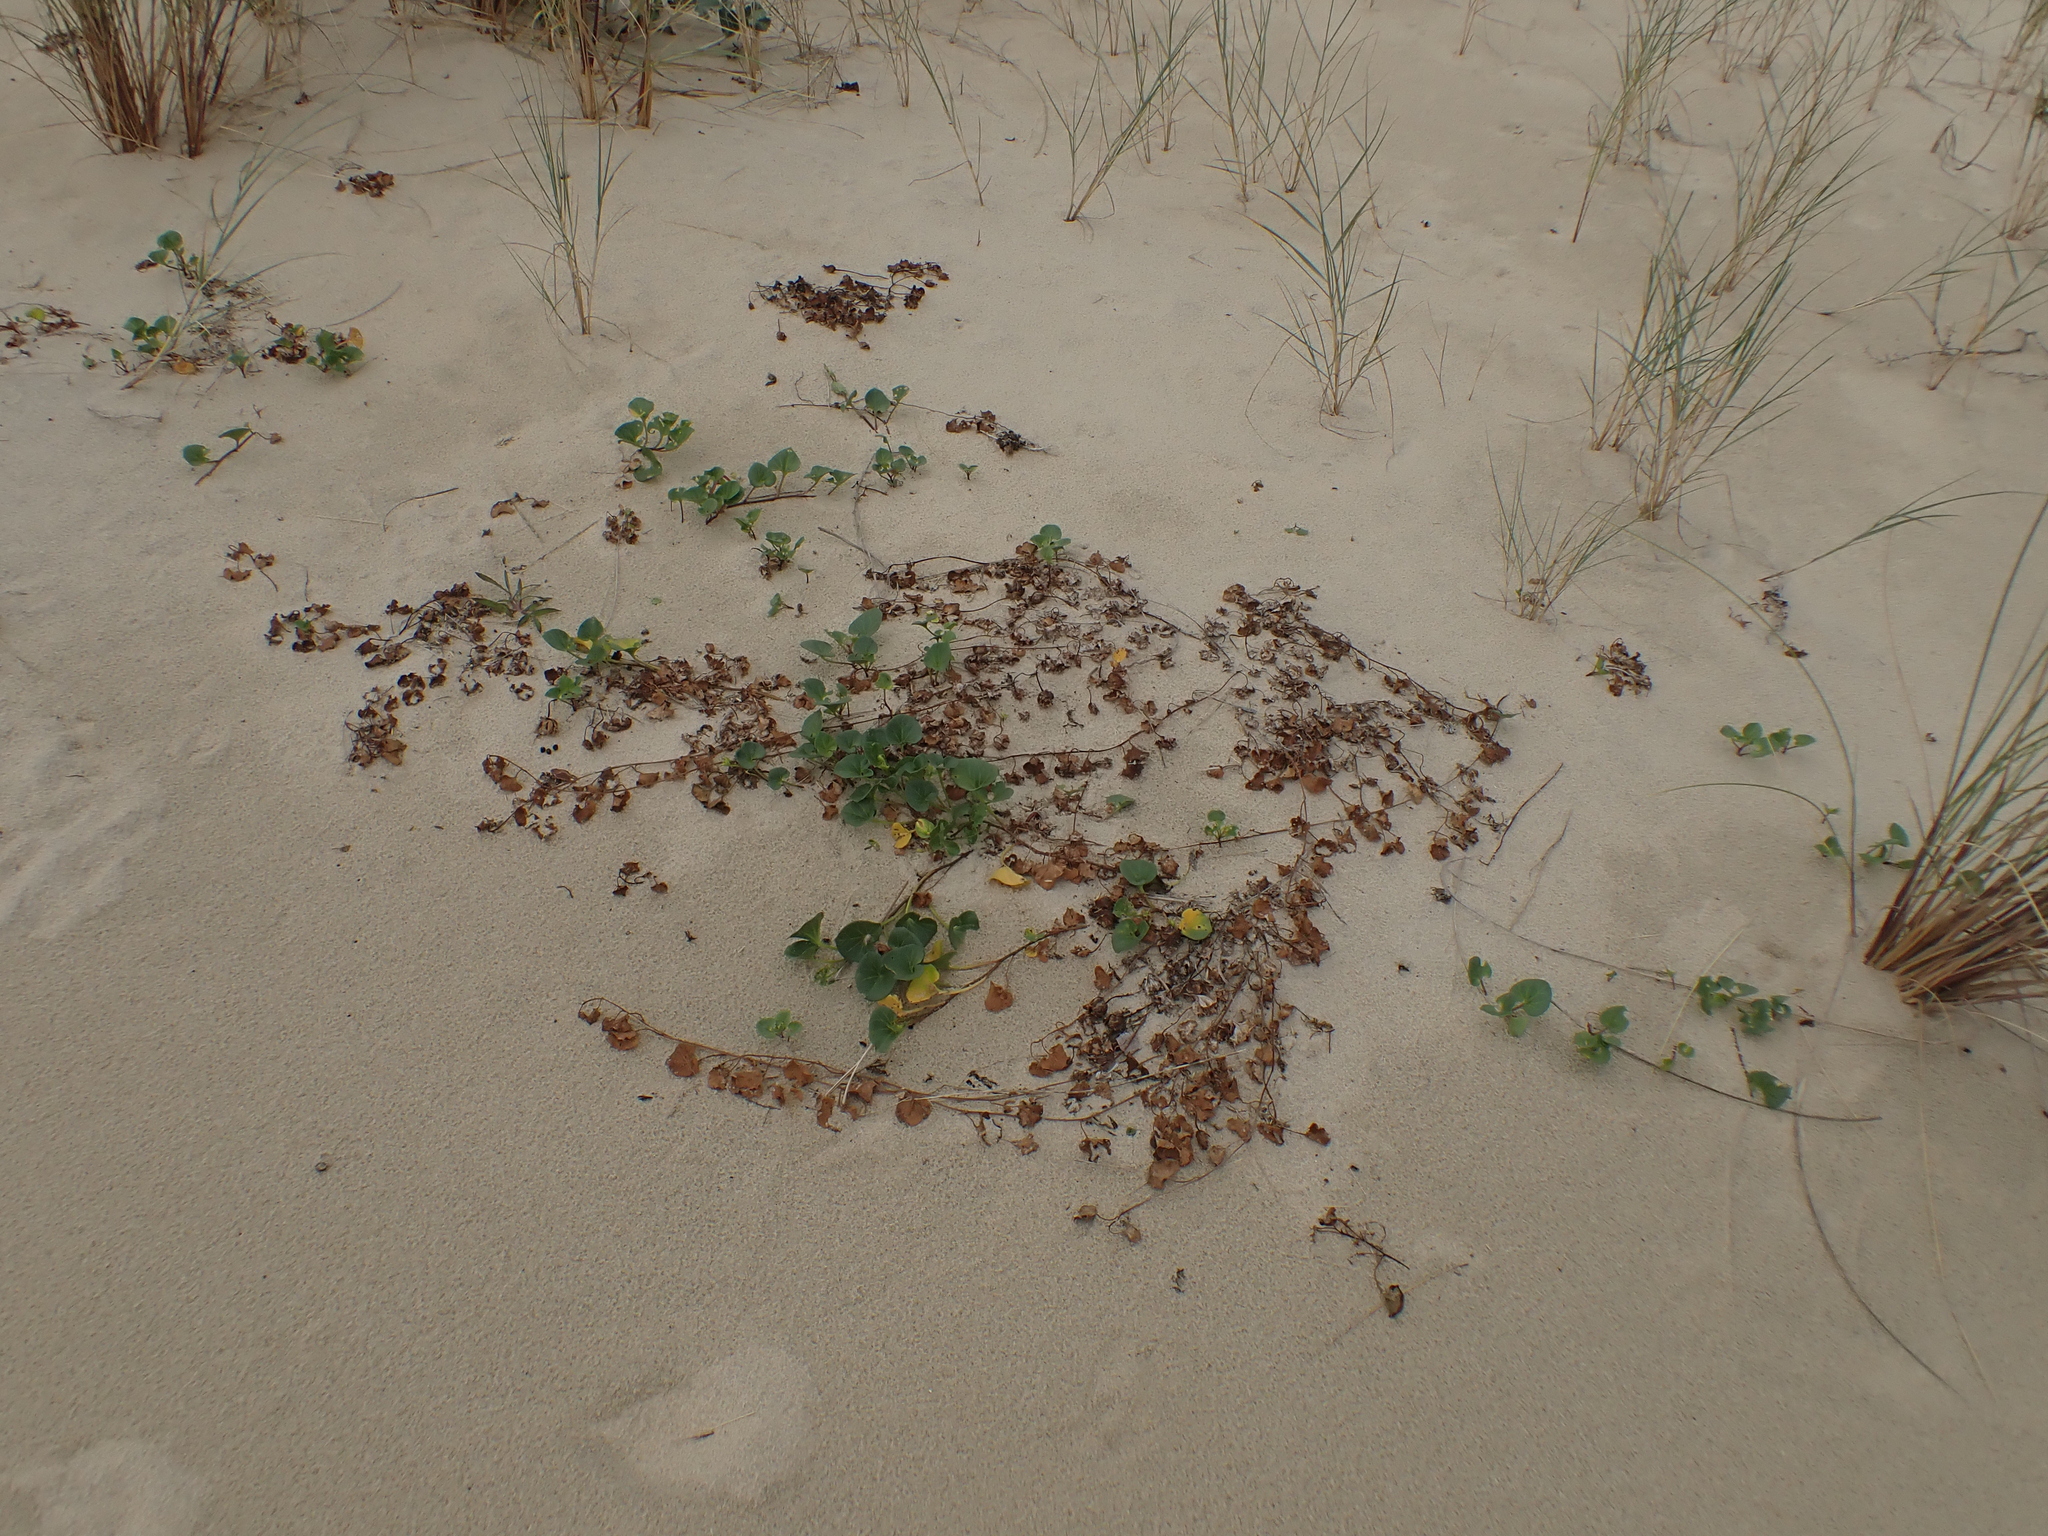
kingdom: Plantae
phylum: Tracheophyta
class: Magnoliopsida
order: Solanales
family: Convolvulaceae
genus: Calystegia
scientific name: Calystegia soldanella
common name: Sea bindweed
